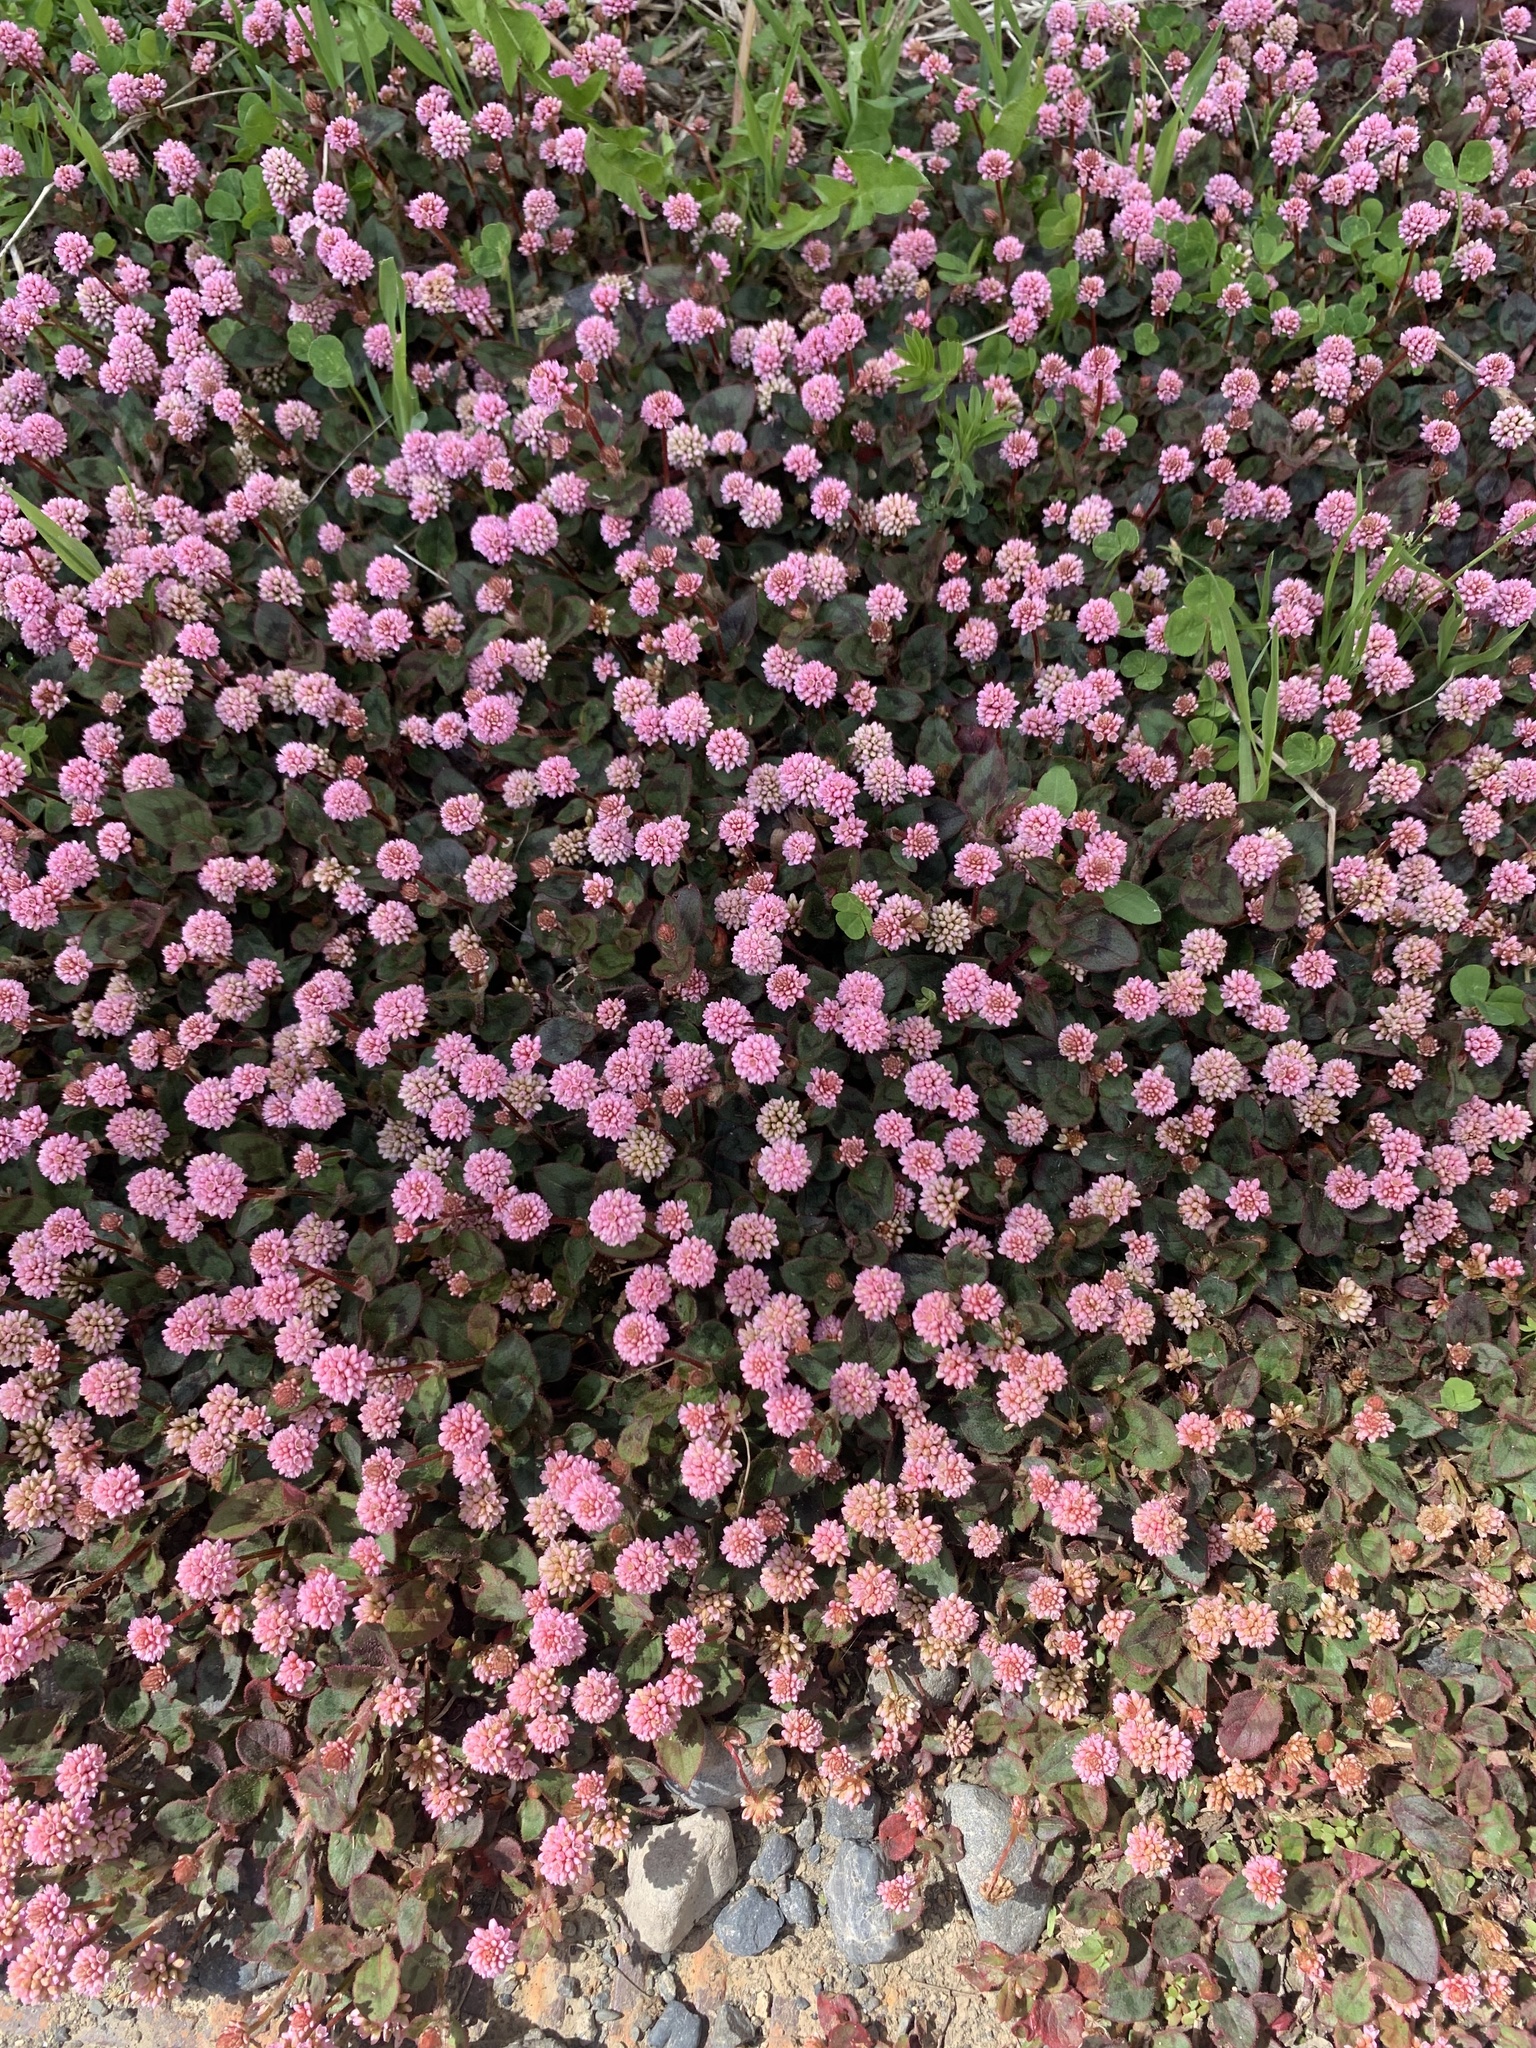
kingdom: Plantae
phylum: Tracheophyta
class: Magnoliopsida
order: Caryophyllales
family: Polygonaceae
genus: Persicaria
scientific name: Persicaria capitata
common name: Pinkhead smartweed
